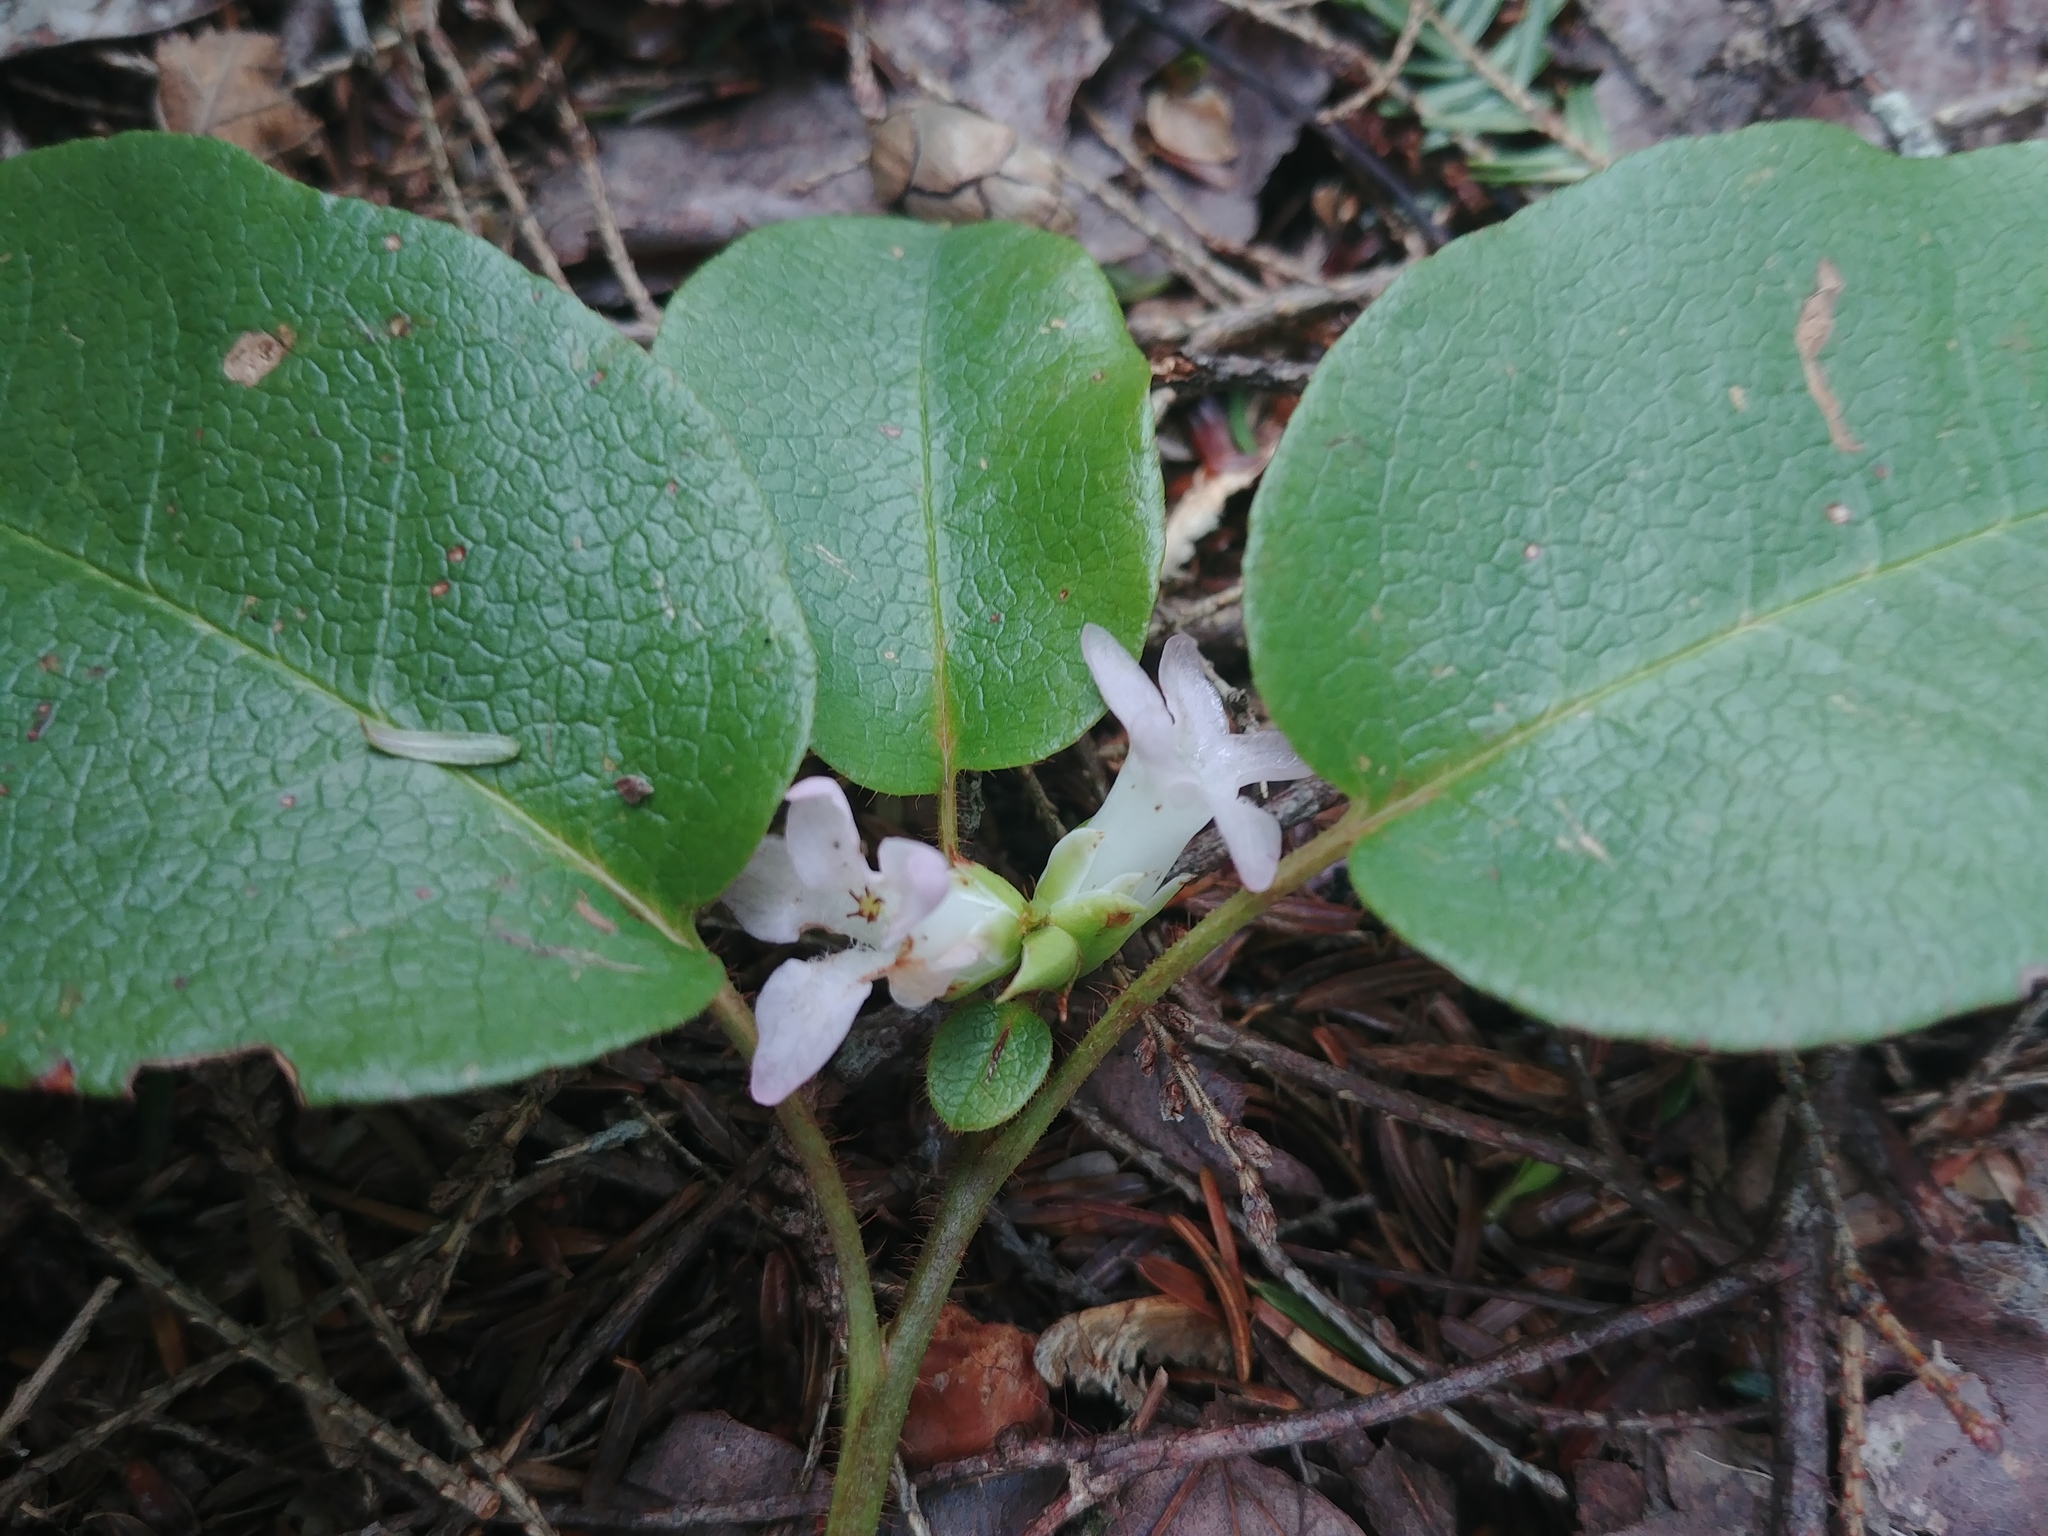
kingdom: Plantae
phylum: Tracheophyta
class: Magnoliopsida
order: Ericales
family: Ericaceae
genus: Epigaea
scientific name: Epigaea repens
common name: Gravelroot
